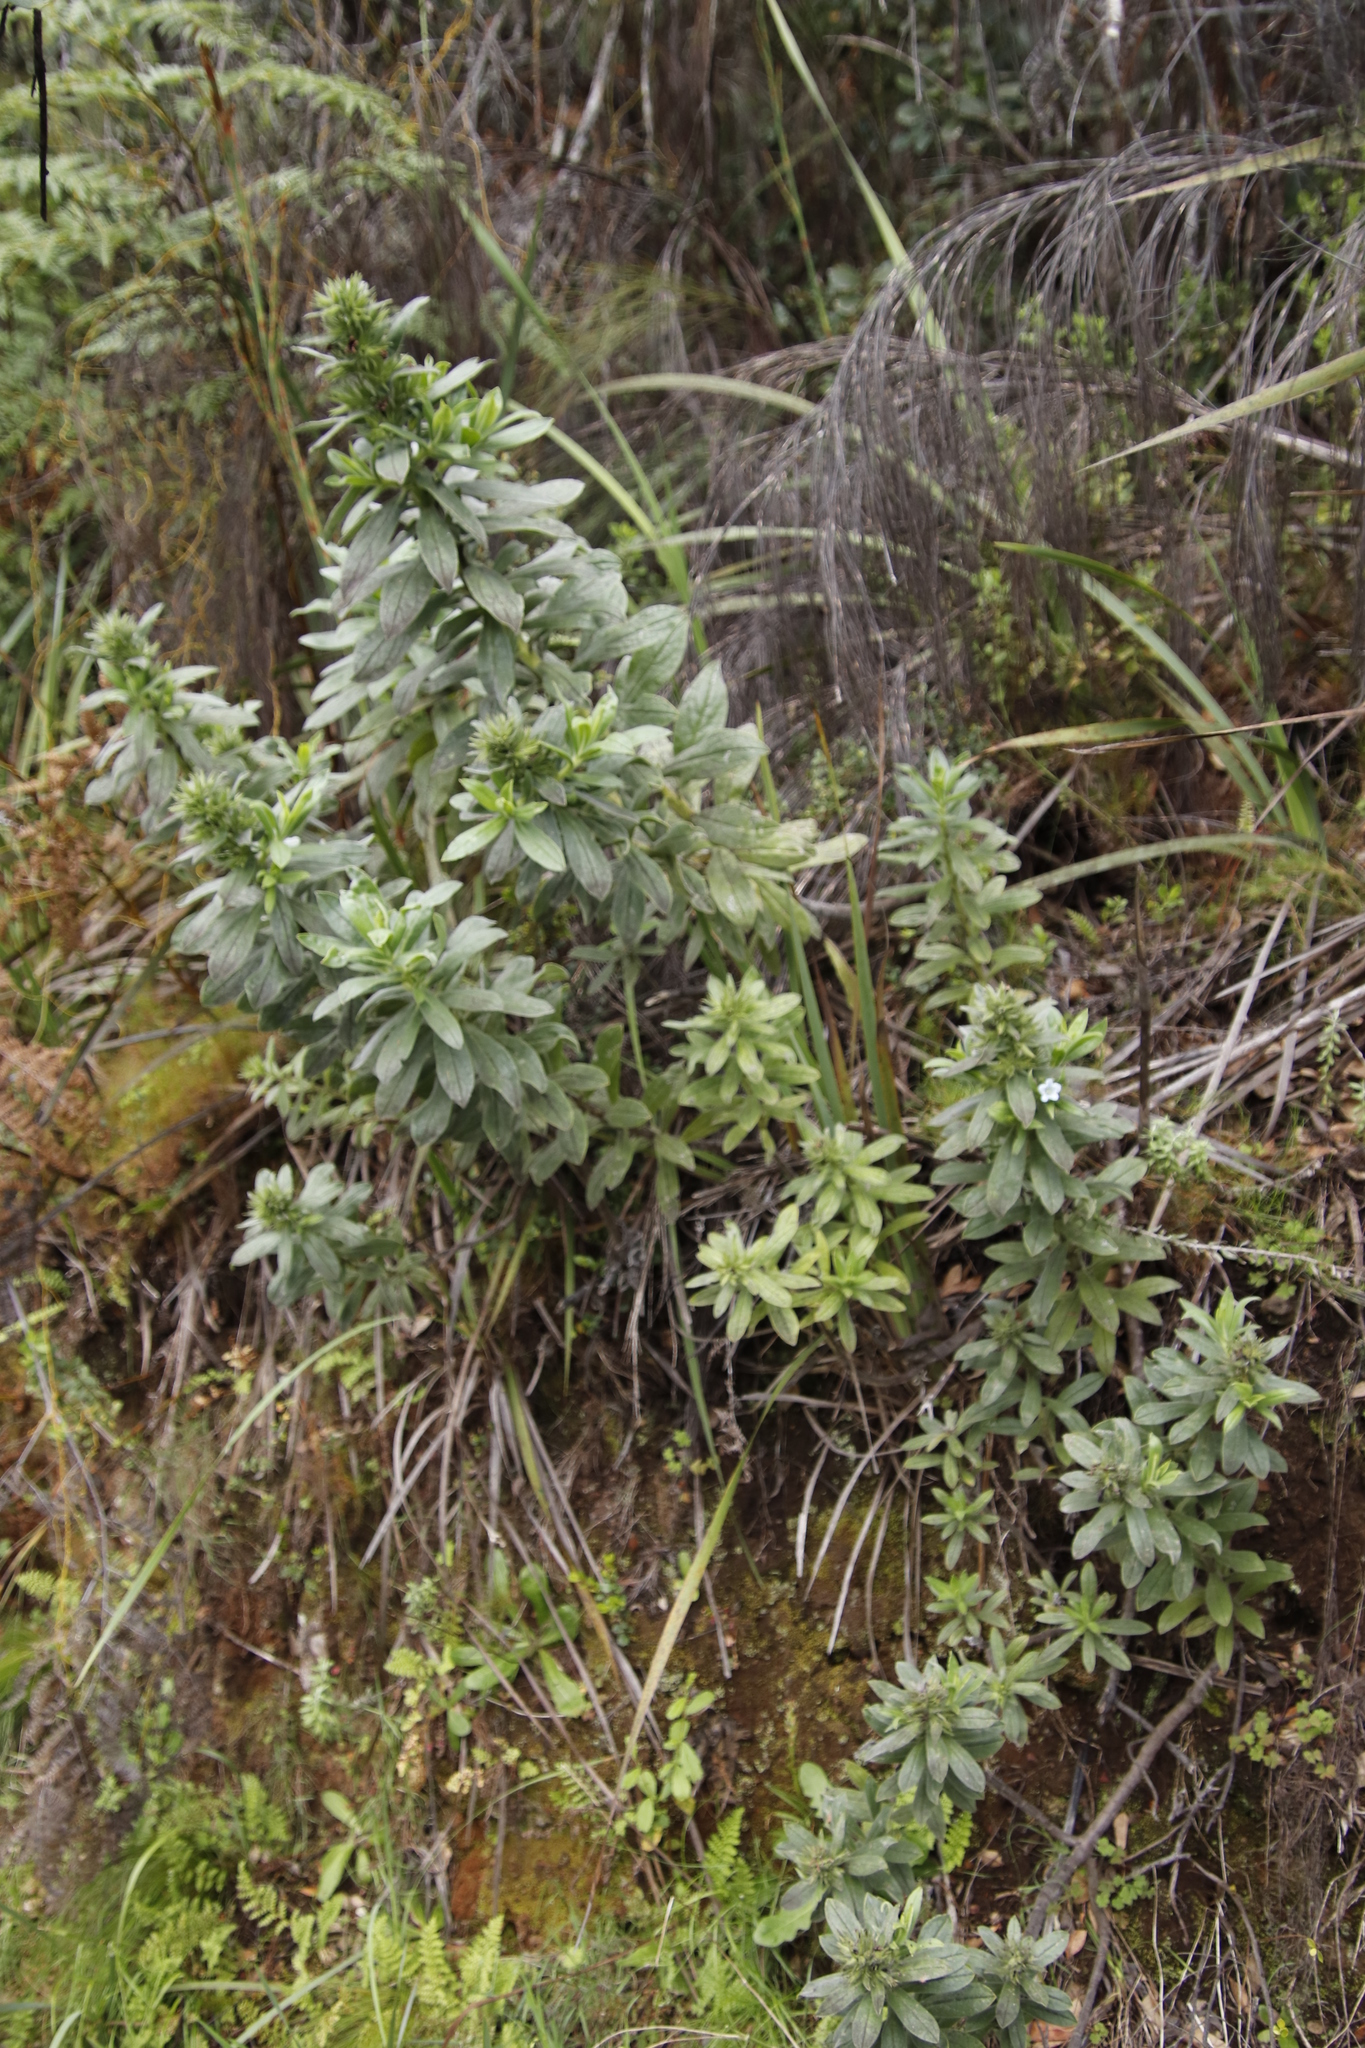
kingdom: Plantae
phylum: Tracheophyta
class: Magnoliopsida
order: Boraginales
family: Boraginaceae
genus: Lobostemon
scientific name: Lobostemon montanus
